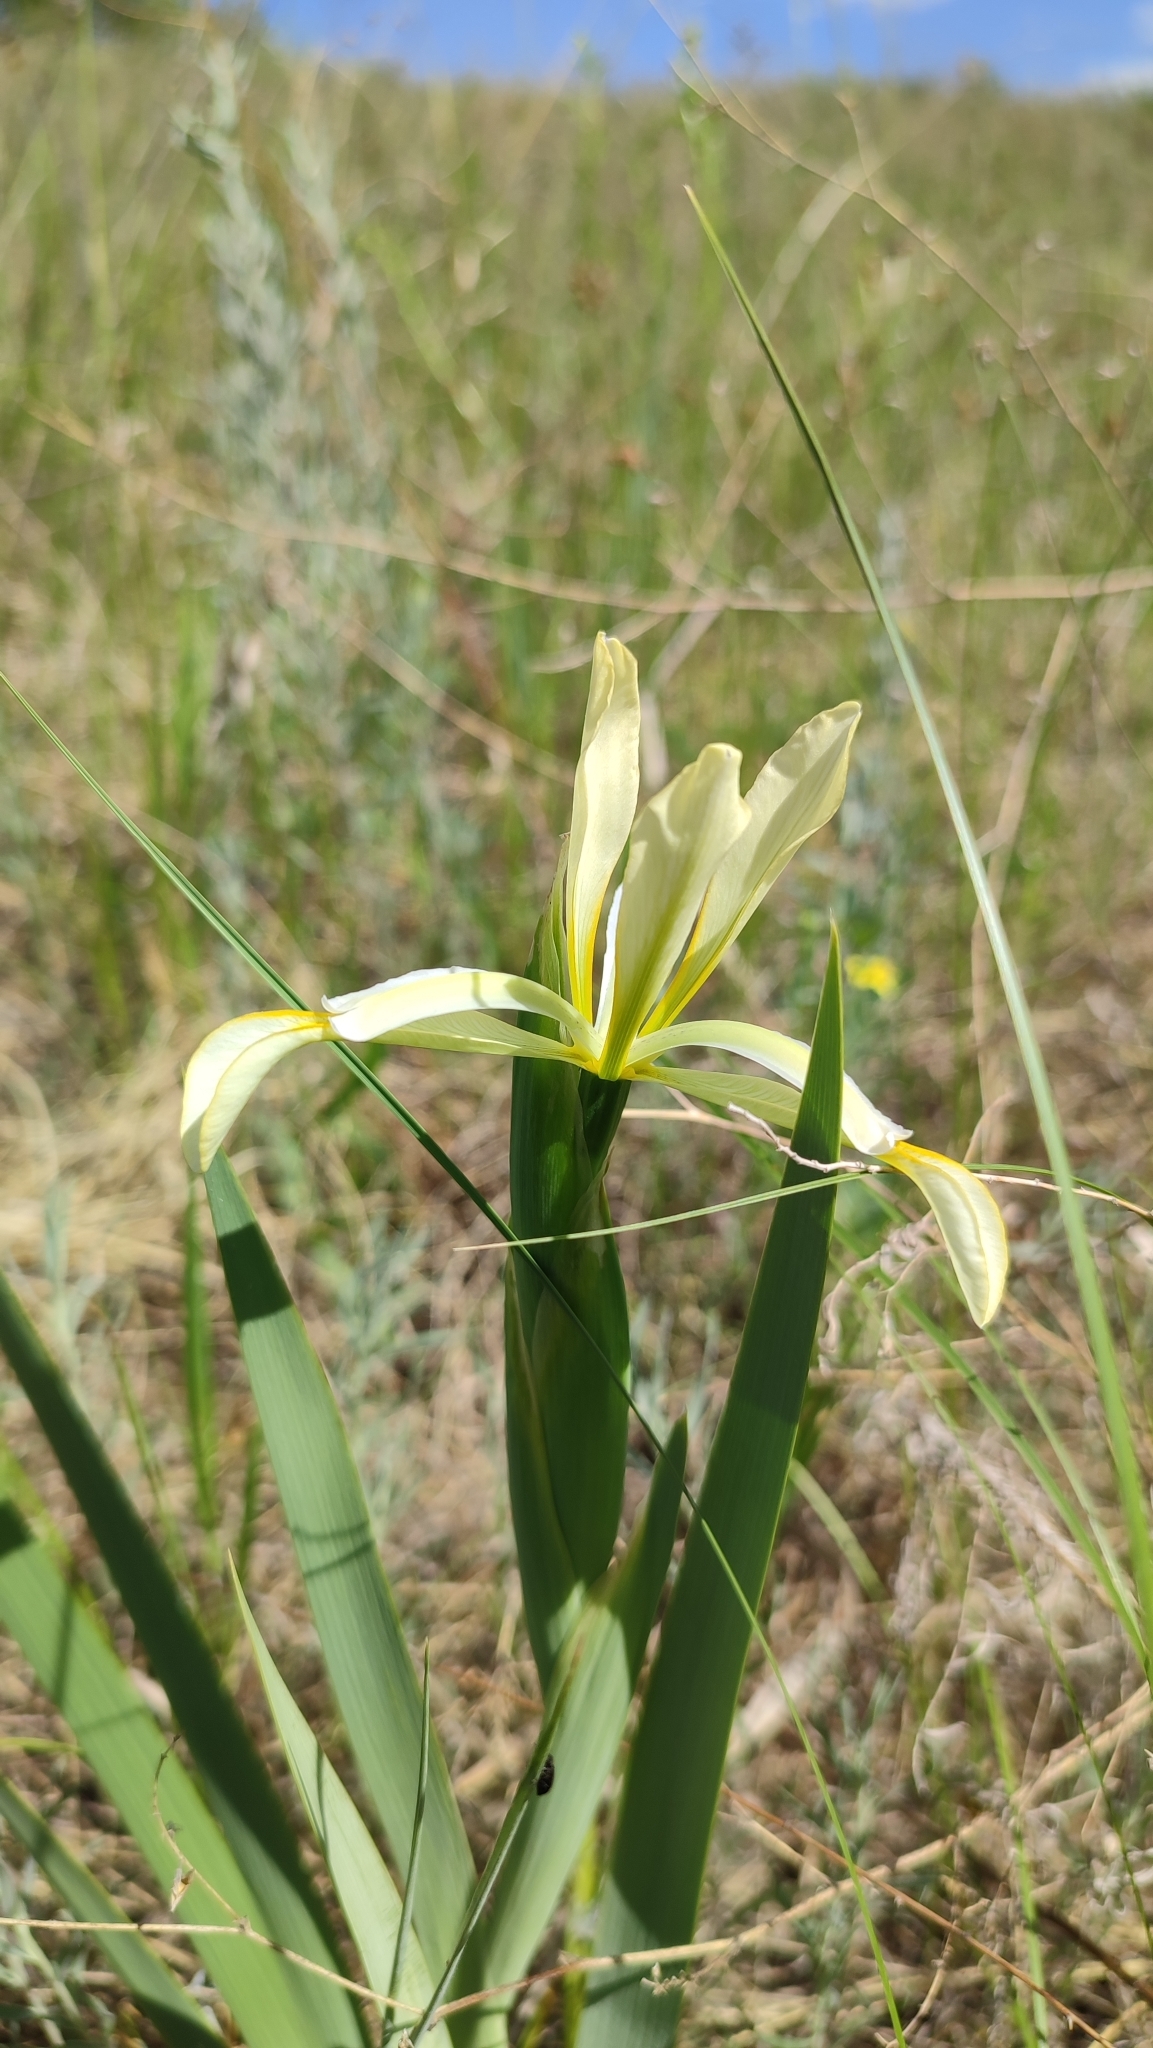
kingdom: Plantae
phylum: Tracheophyta
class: Liliopsida
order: Asparagales
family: Iridaceae
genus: Iris
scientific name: Iris halophila
